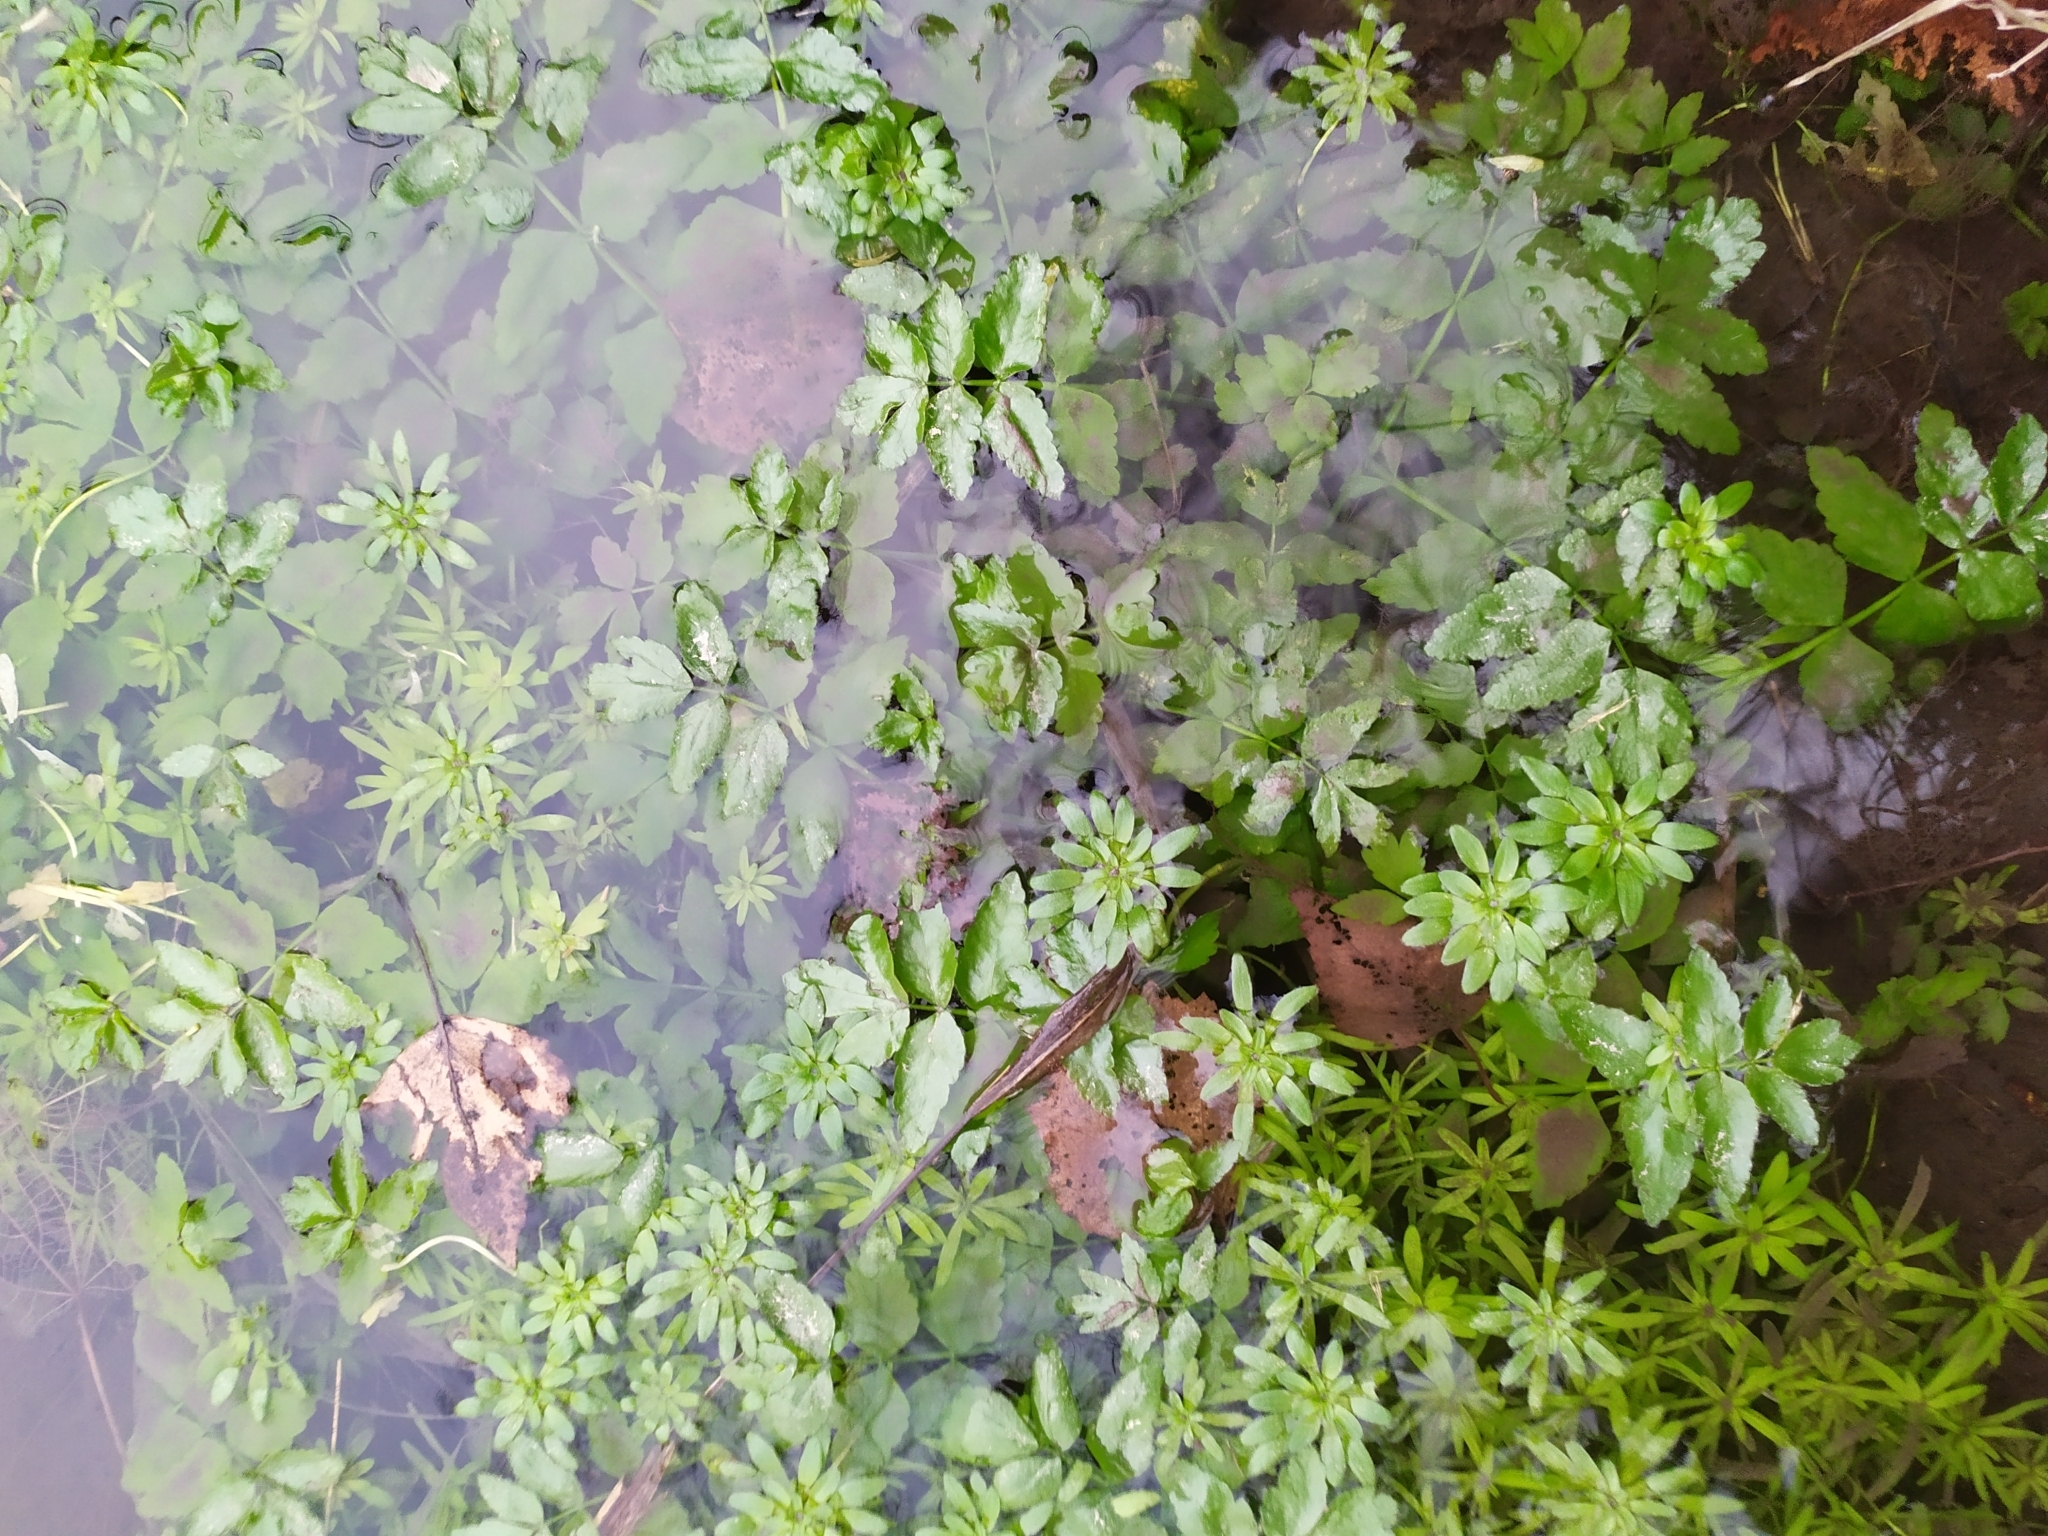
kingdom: Plantae
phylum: Tracheophyta
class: Magnoliopsida
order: Apiales
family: Apiaceae
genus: Berula
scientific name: Berula erecta
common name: Lesser water-parsnip
